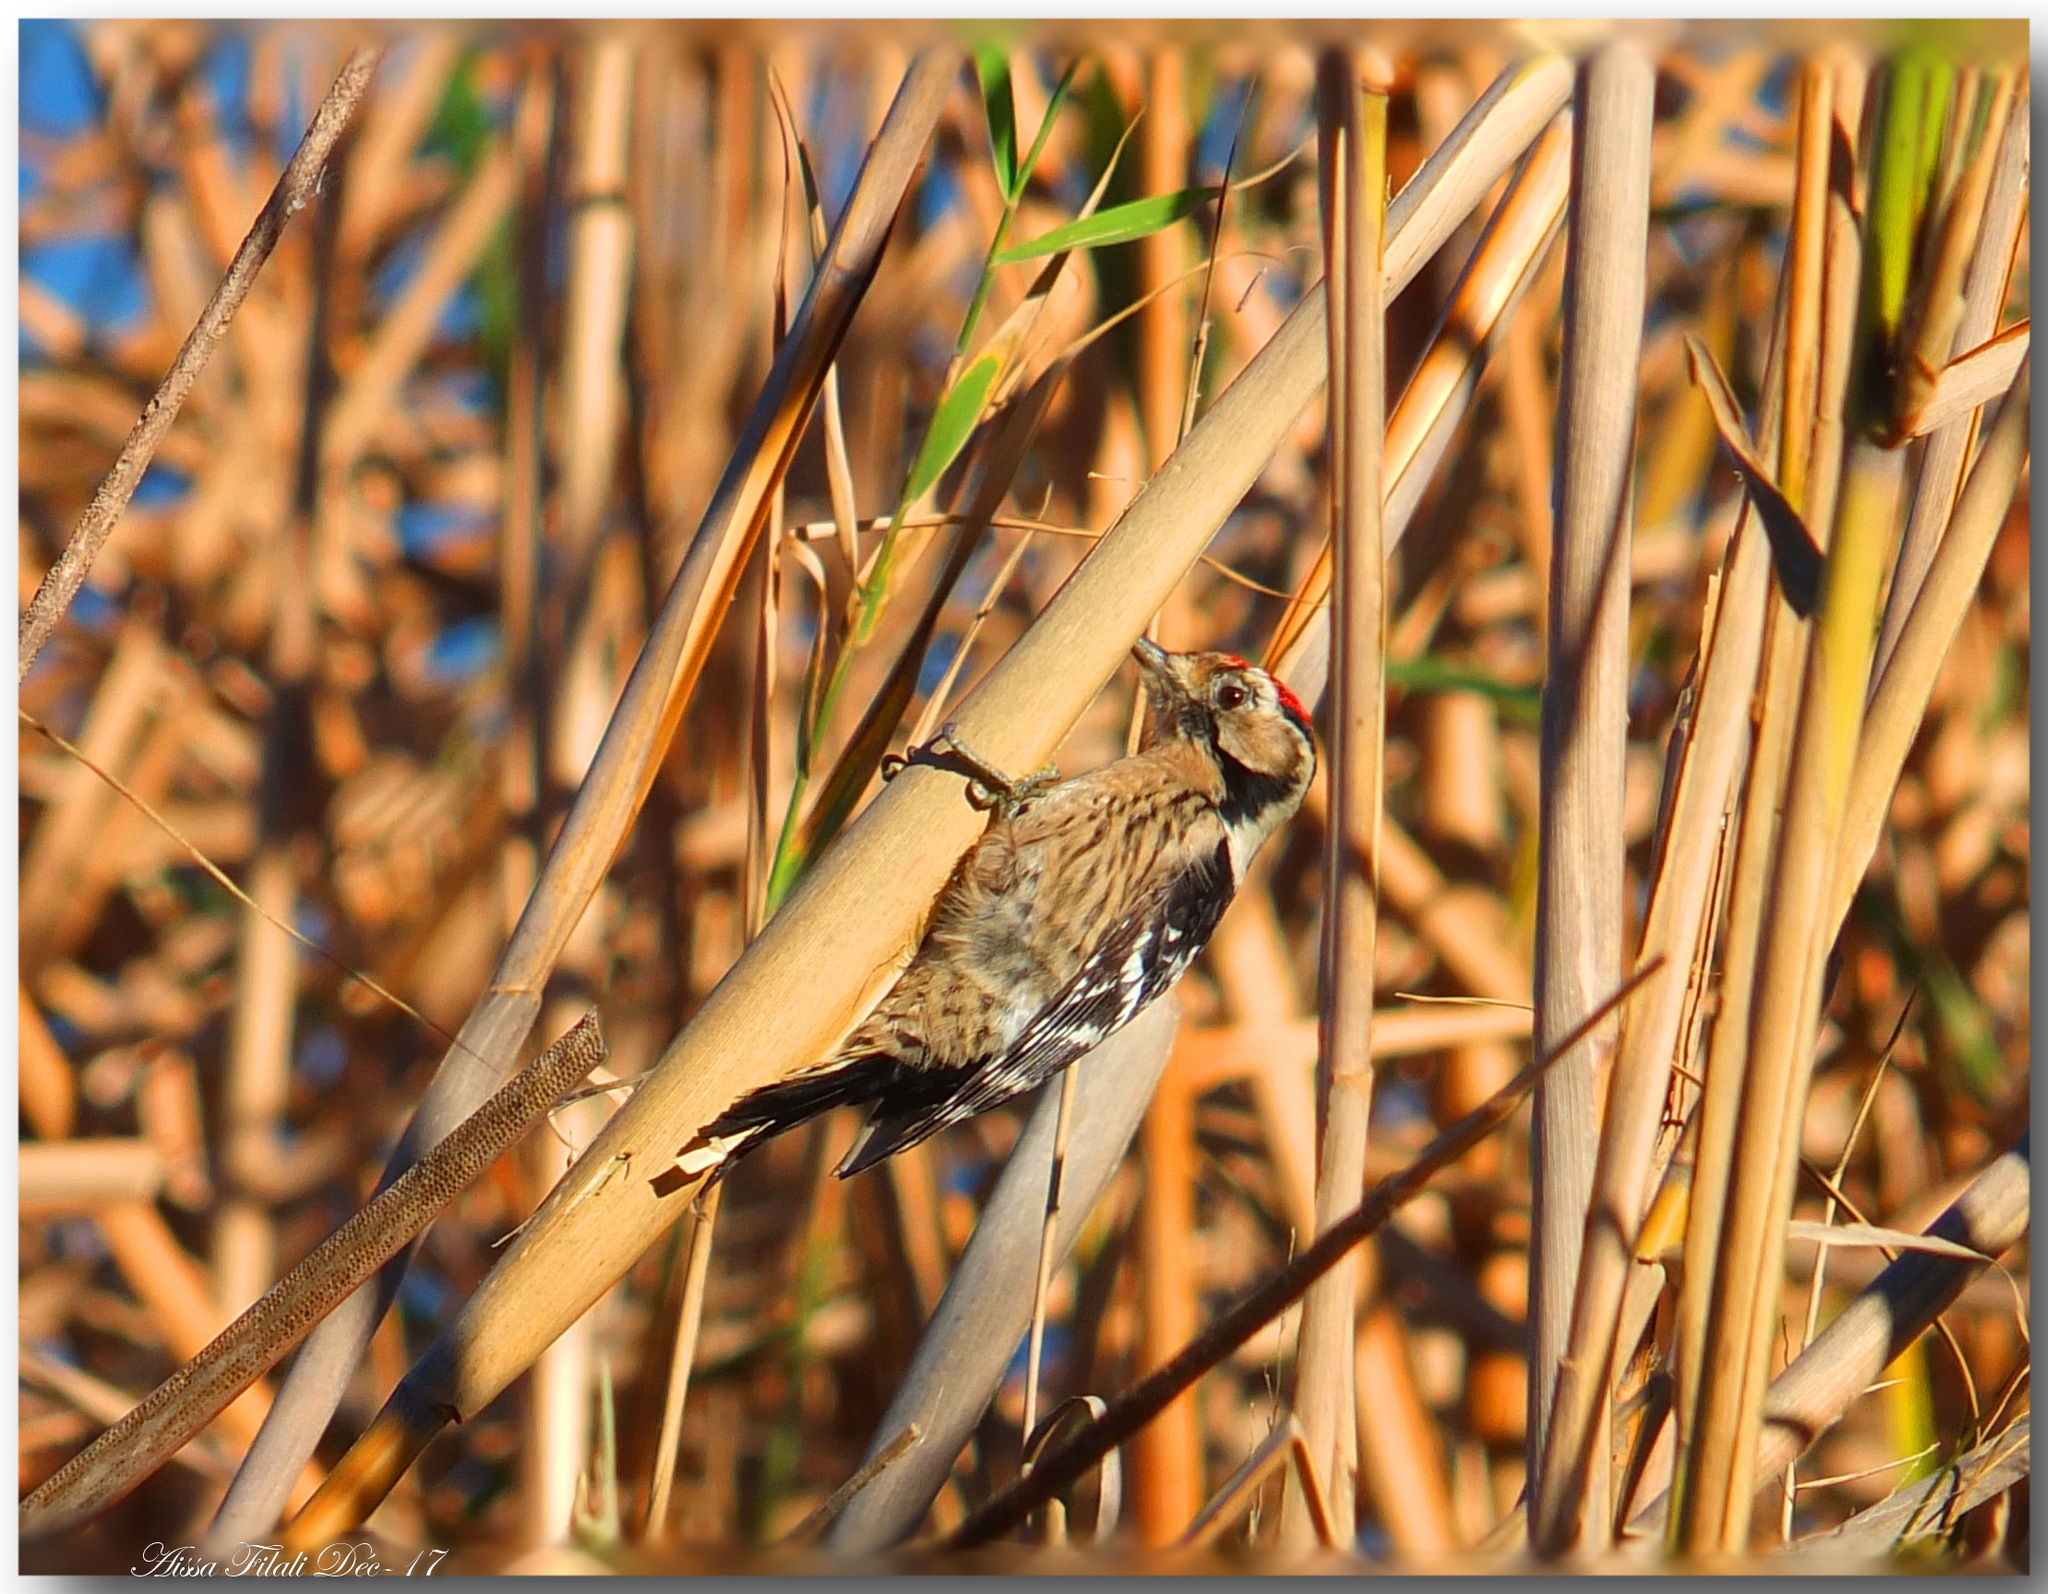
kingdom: Animalia
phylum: Chordata
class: Aves
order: Piciformes
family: Picidae
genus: Dryobates
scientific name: Dryobates minor
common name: Lesser spotted woodpecker
